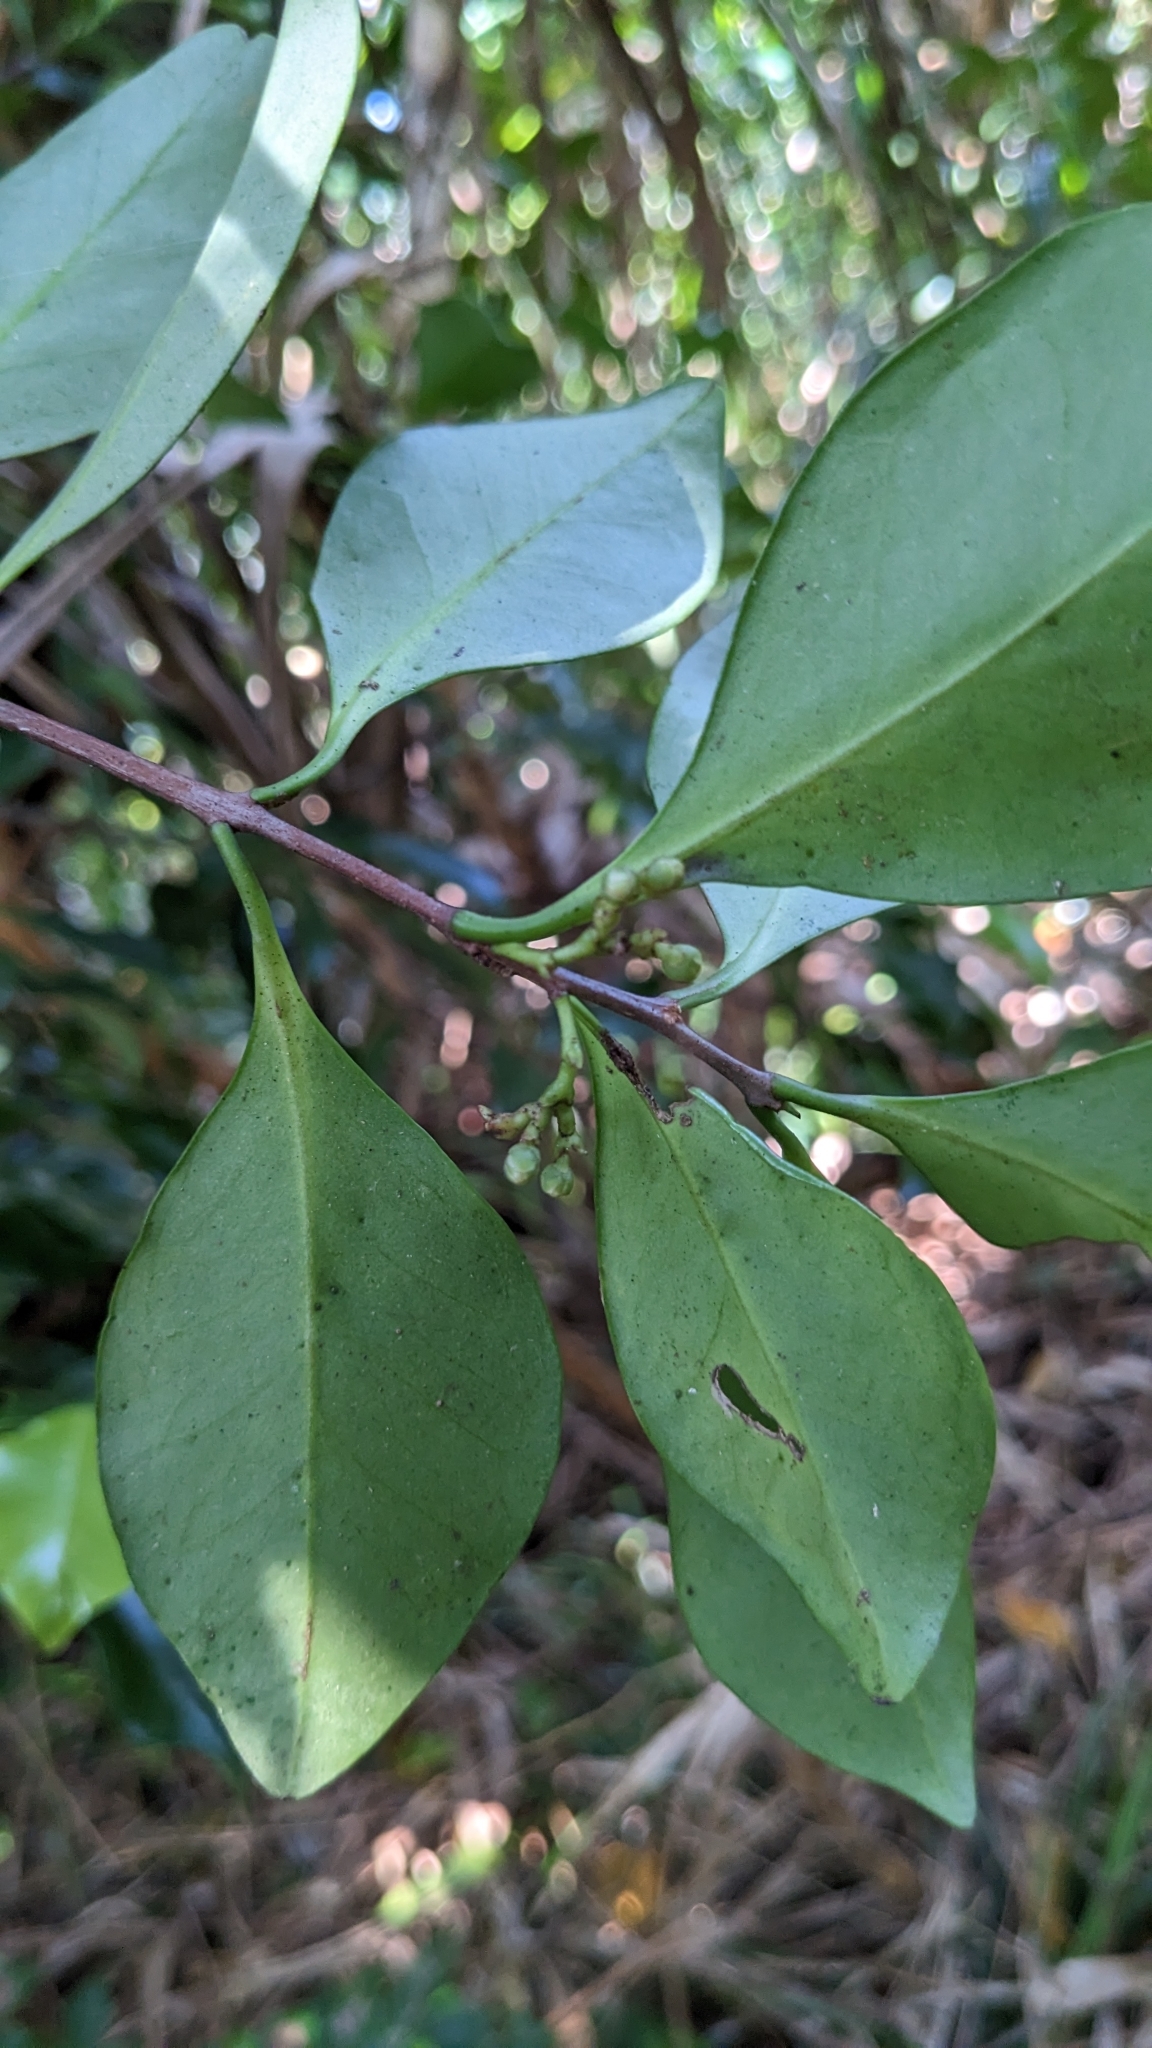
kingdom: Plantae
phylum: Tracheophyta
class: Magnoliopsida
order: Celastrales
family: Celastraceae
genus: Microtropis
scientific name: Microtropis japonica
